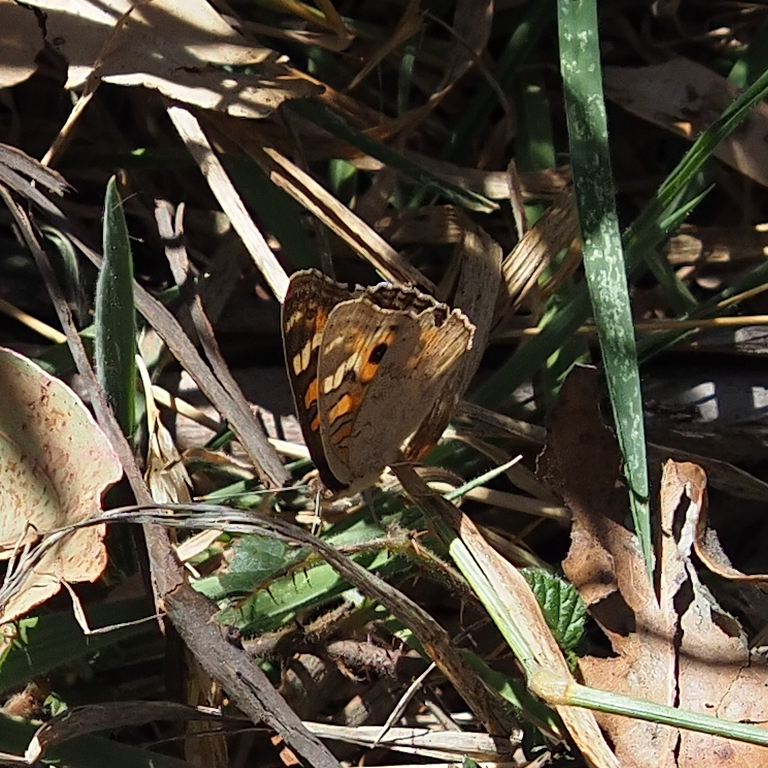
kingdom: Animalia
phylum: Arthropoda
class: Insecta
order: Lepidoptera
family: Nymphalidae
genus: Junonia
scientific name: Junonia villida
